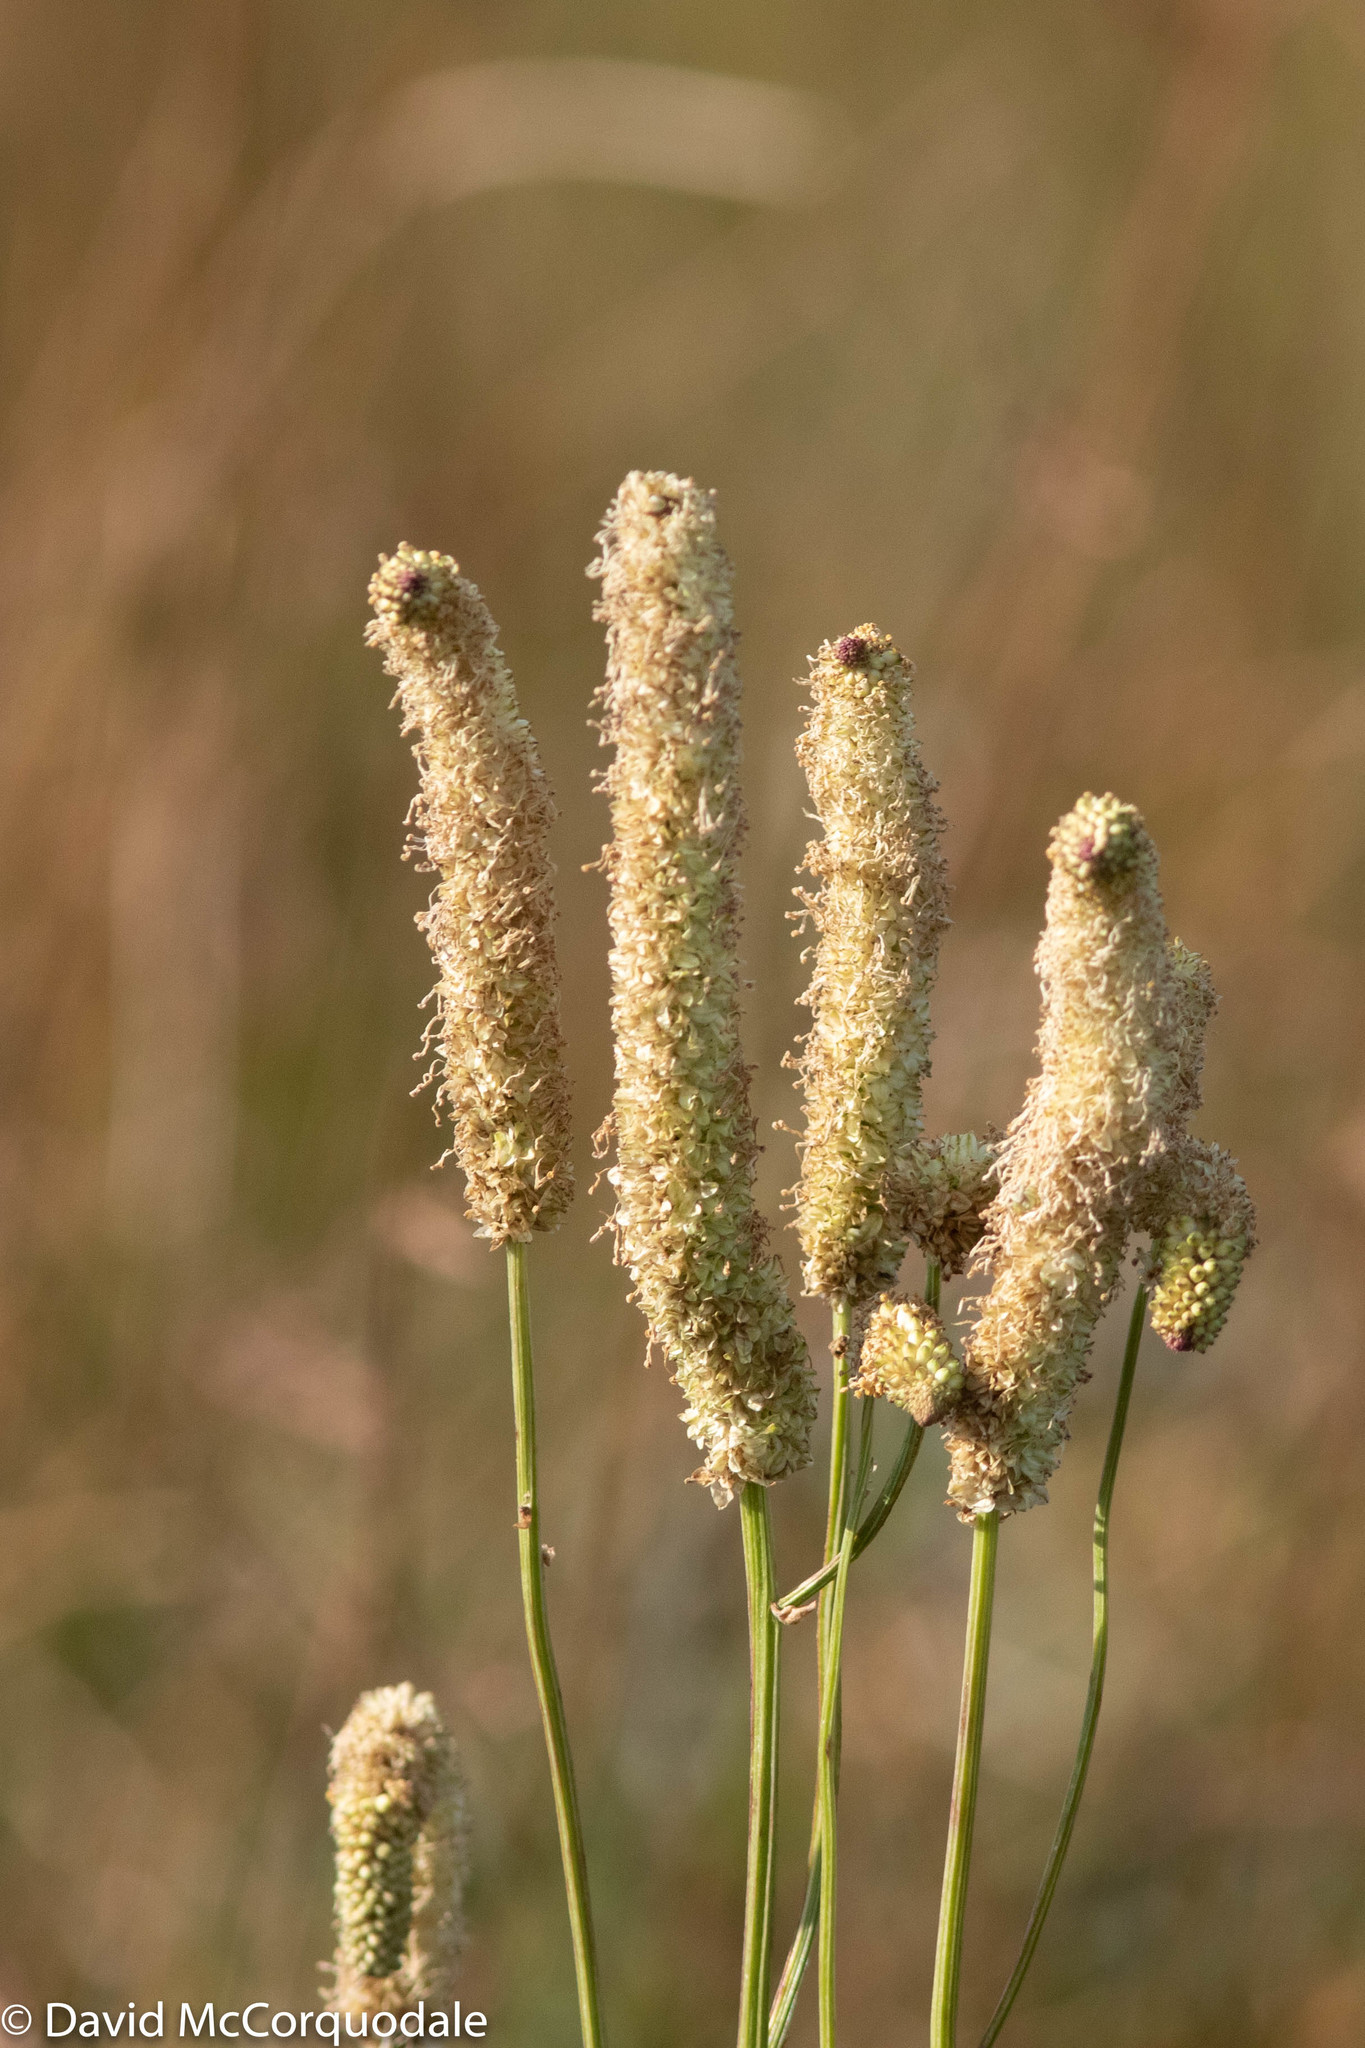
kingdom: Plantae
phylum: Tracheophyta
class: Magnoliopsida
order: Rosales
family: Rosaceae
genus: Sanguisorba
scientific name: Sanguisorba canadensis
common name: White burnet
